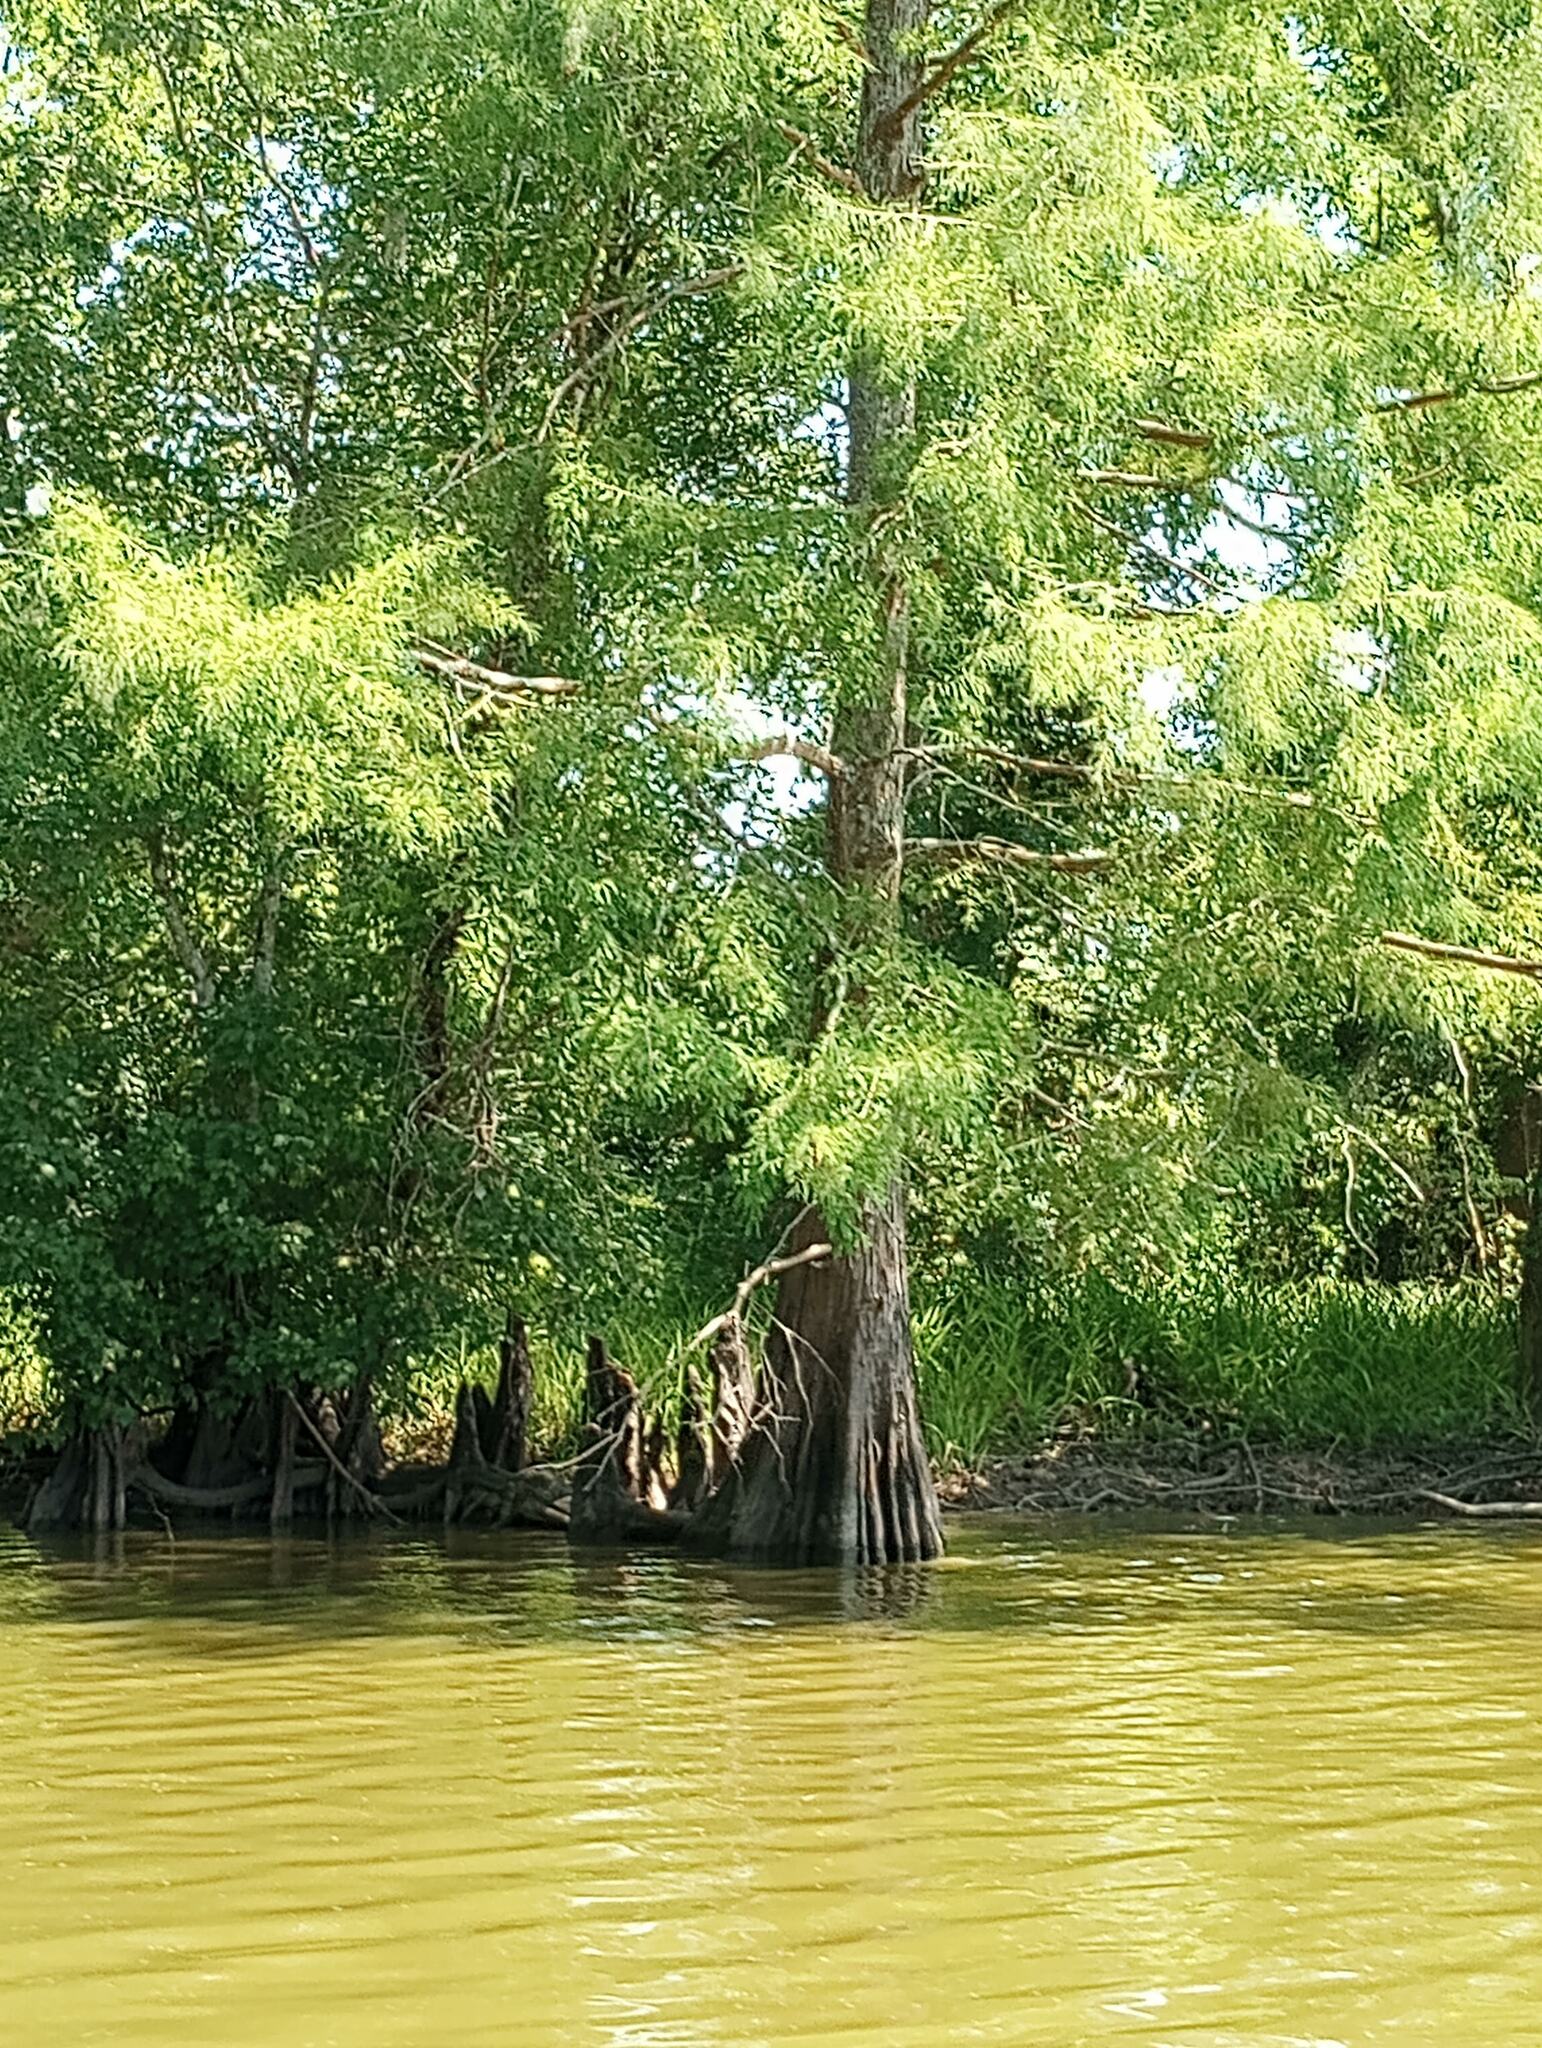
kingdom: Plantae
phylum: Tracheophyta
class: Pinopsida
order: Pinales
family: Cupressaceae
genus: Taxodium
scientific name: Taxodium distichum
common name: Bald cypress
